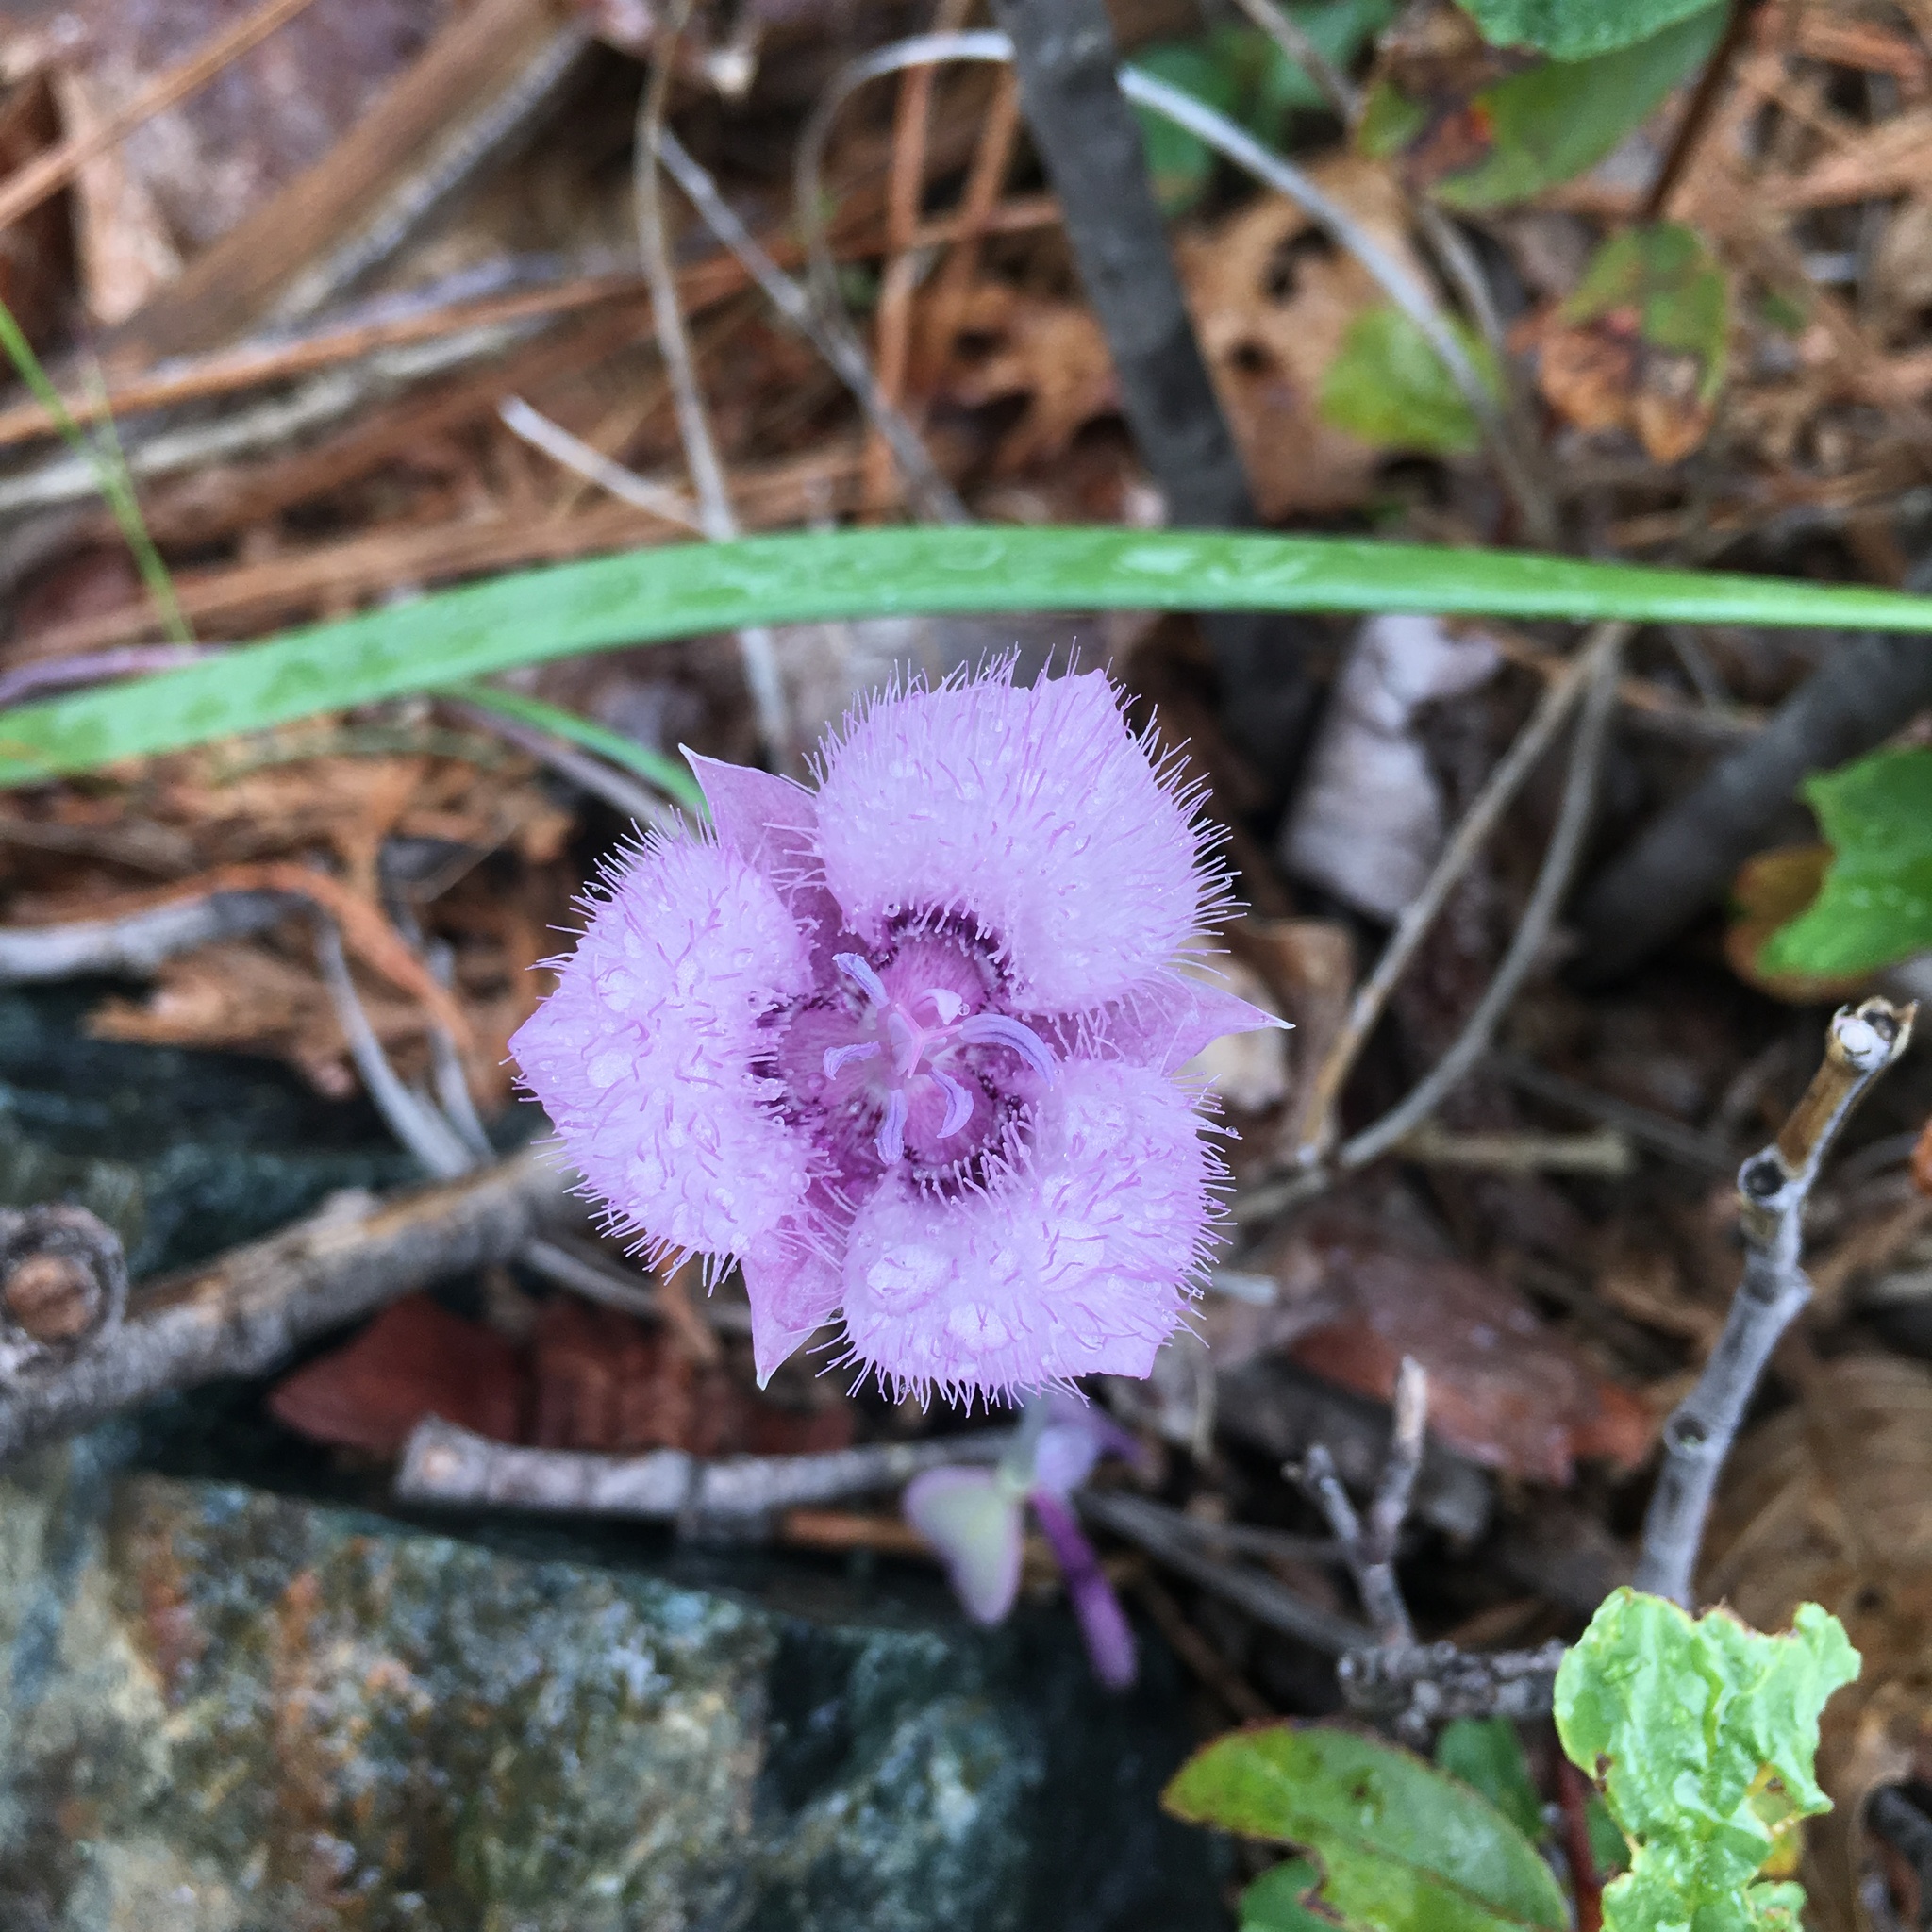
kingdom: Plantae
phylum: Tracheophyta
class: Liliopsida
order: Liliales
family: Liliaceae
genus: Calochortus
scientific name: Calochortus tolmiei
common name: Pussy-ears
